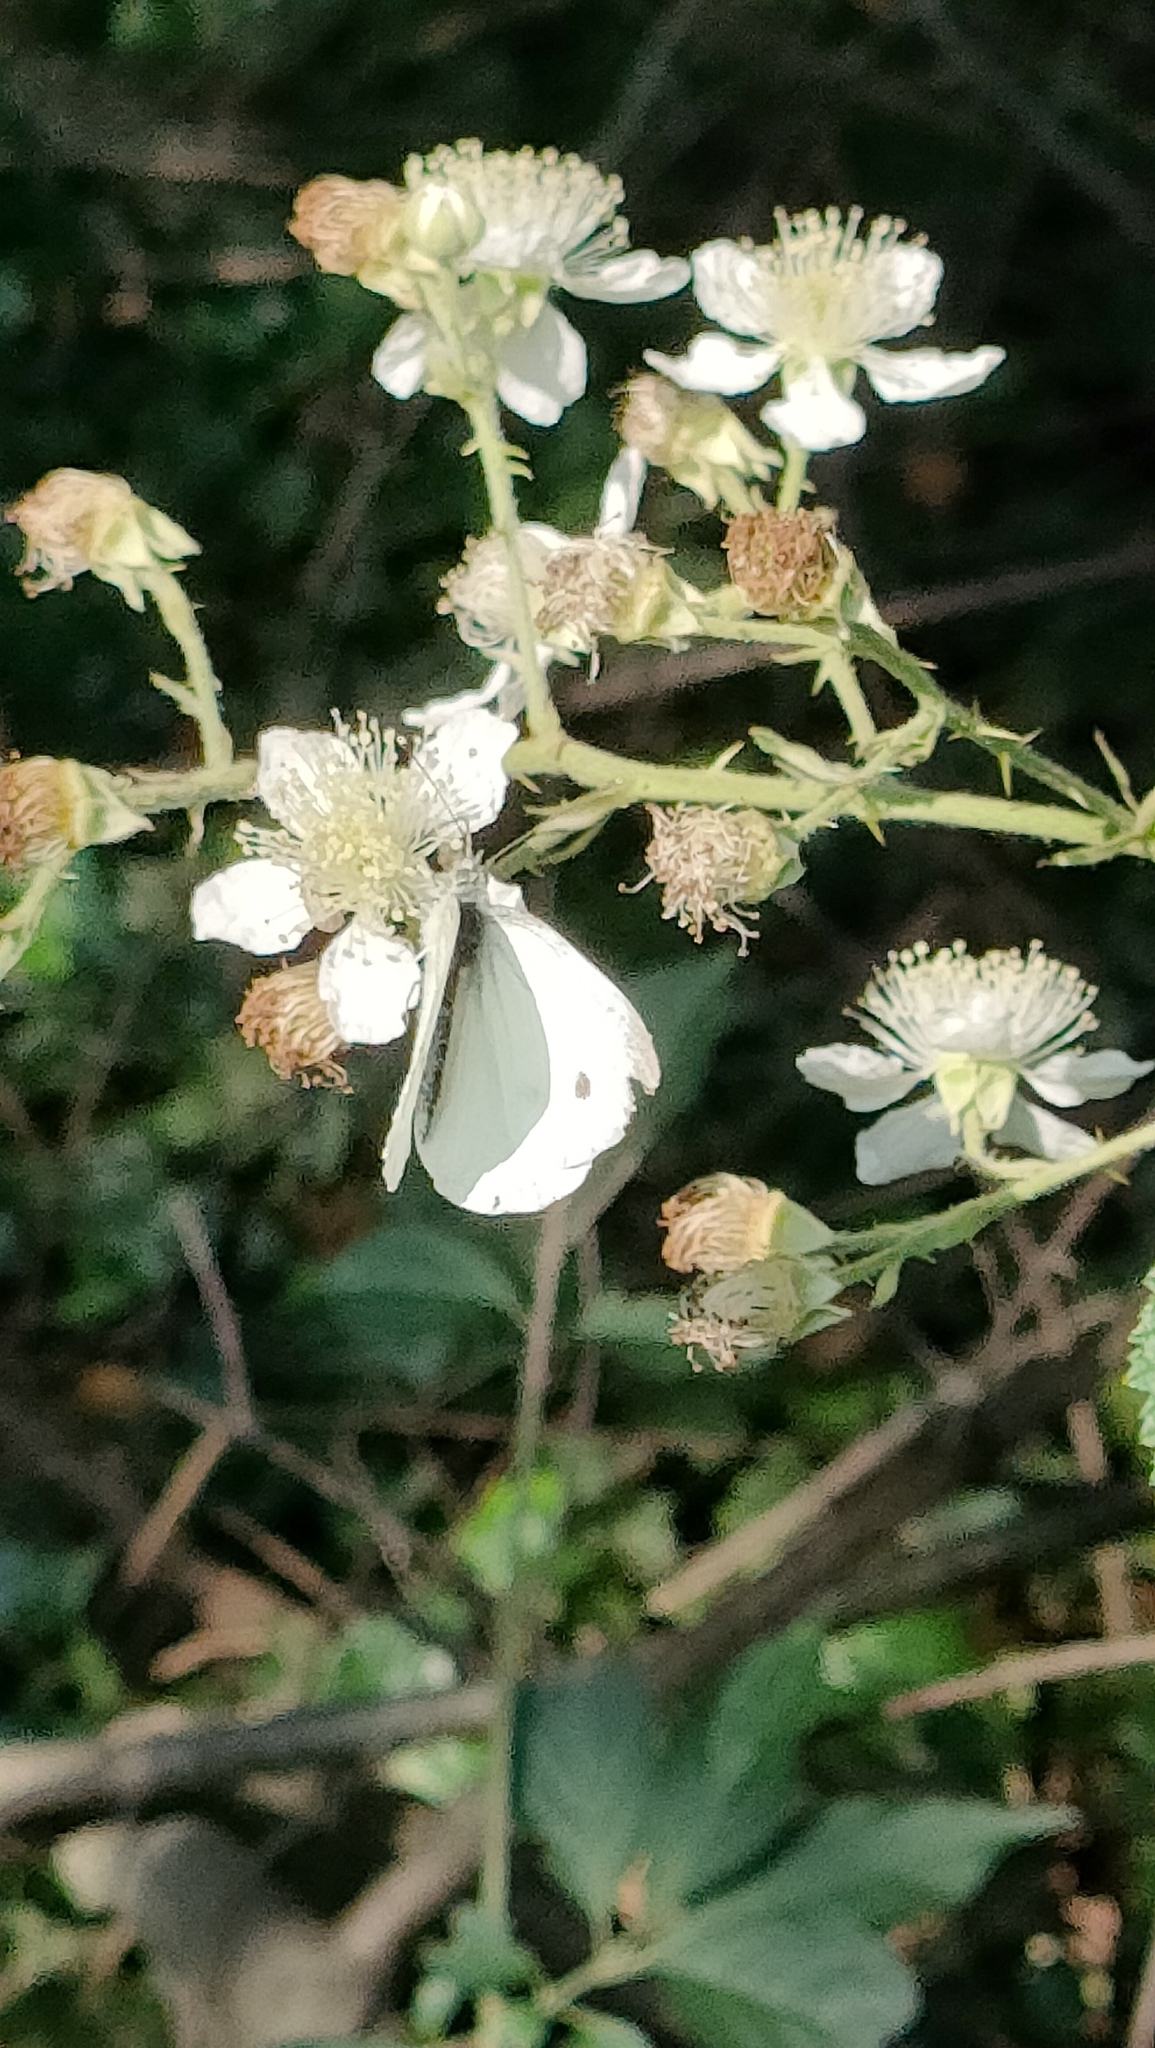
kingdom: Animalia
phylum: Arthropoda
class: Insecta
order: Lepidoptera
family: Pieridae
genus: Pieris
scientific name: Pieris napi
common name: Green-veined white
